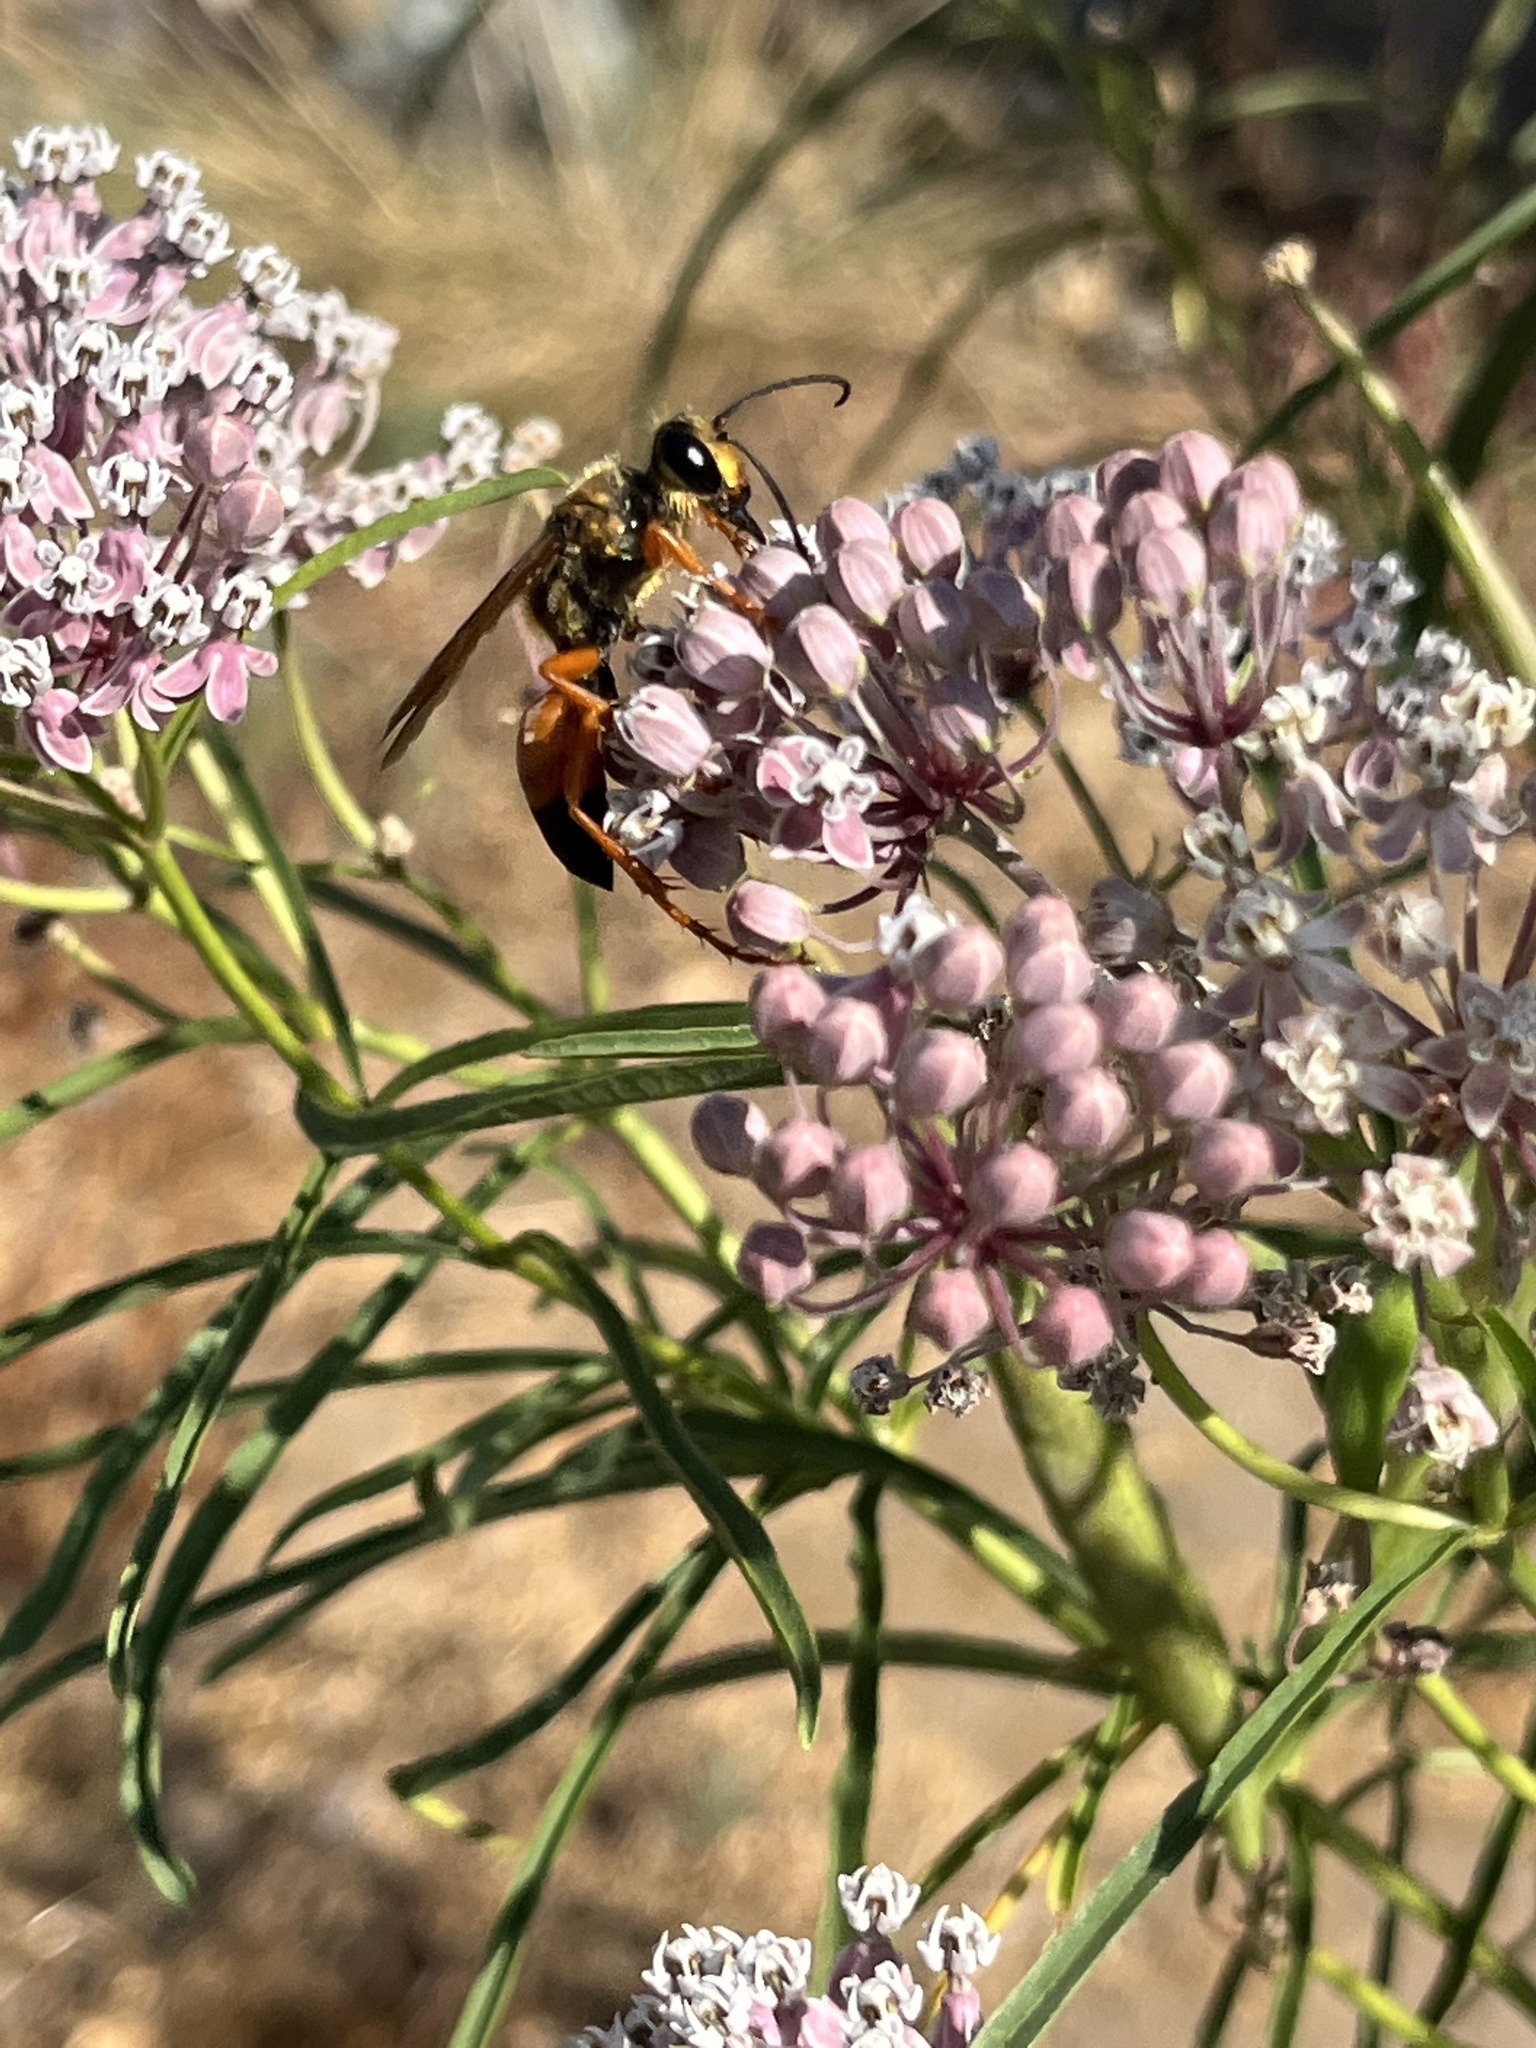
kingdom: Animalia
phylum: Arthropoda
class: Insecta
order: Hymenoptera
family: Sphecidae
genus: Sphex
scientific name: Sphex ichneumoneus
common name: Great golden digger wasp
